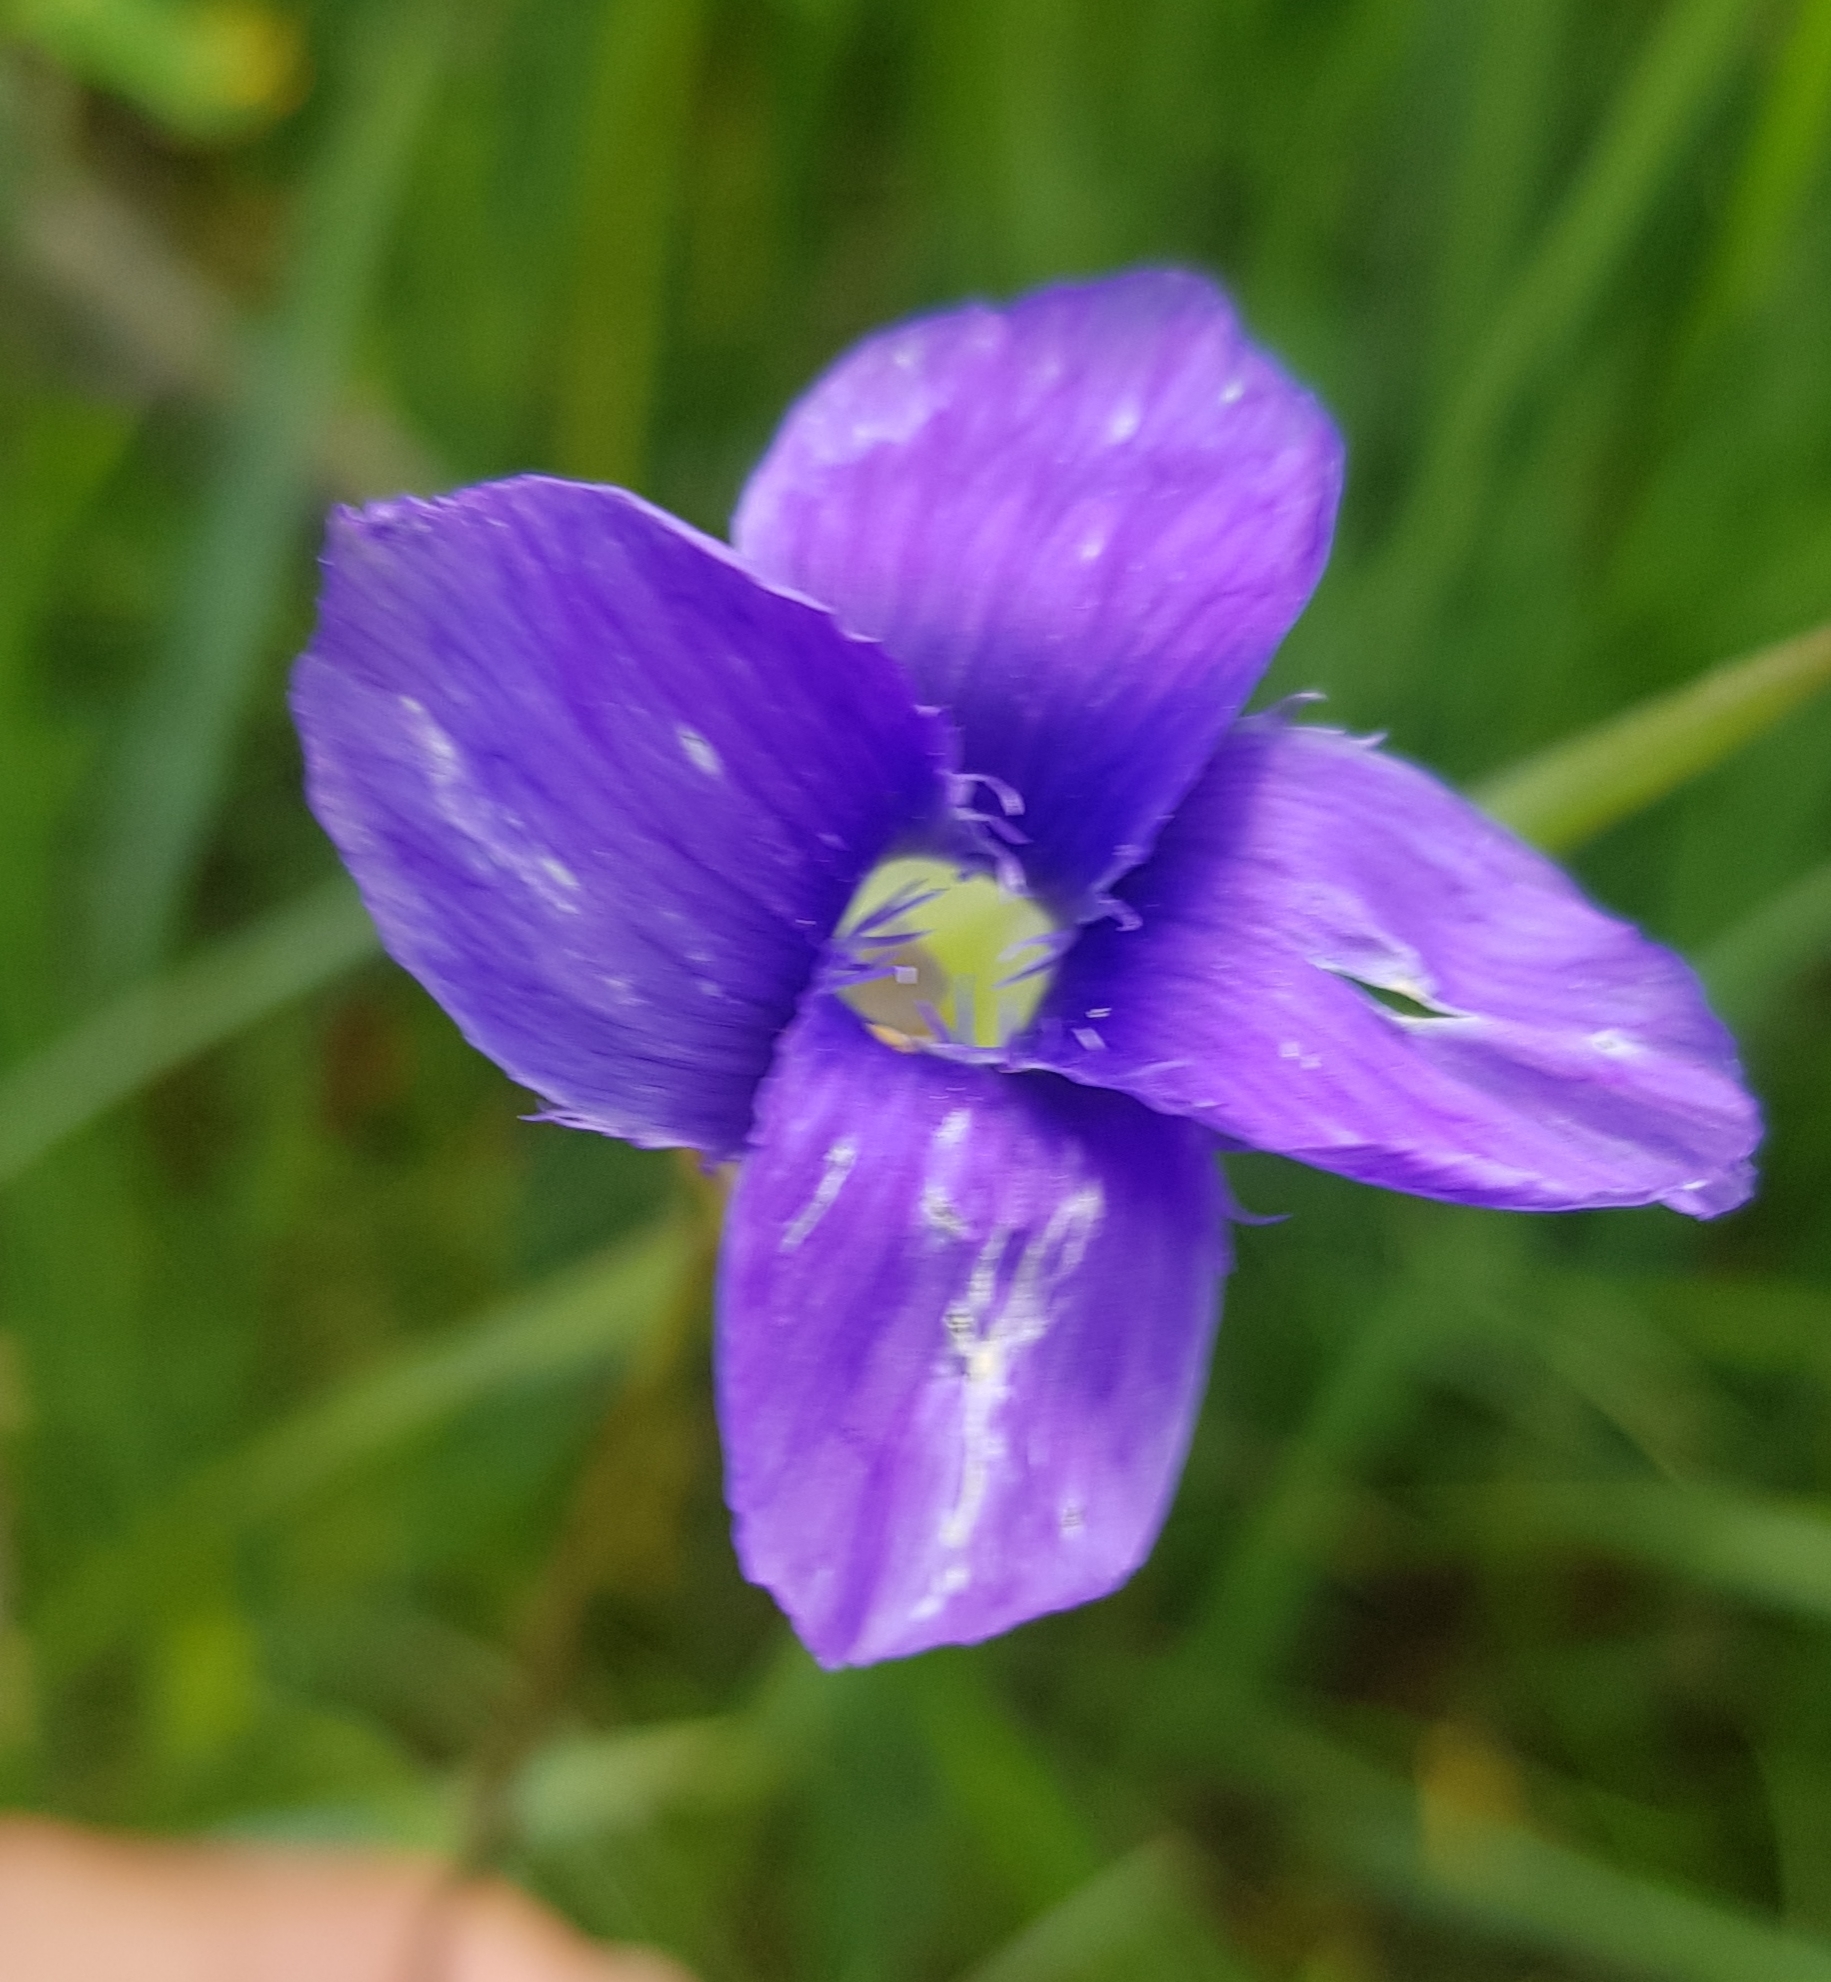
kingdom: Plantae
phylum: Tracheophyta
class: Magnoliopsida
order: Gentianales
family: Gentianaceae
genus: Gentianopsis
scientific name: Gentianopsis barbata
